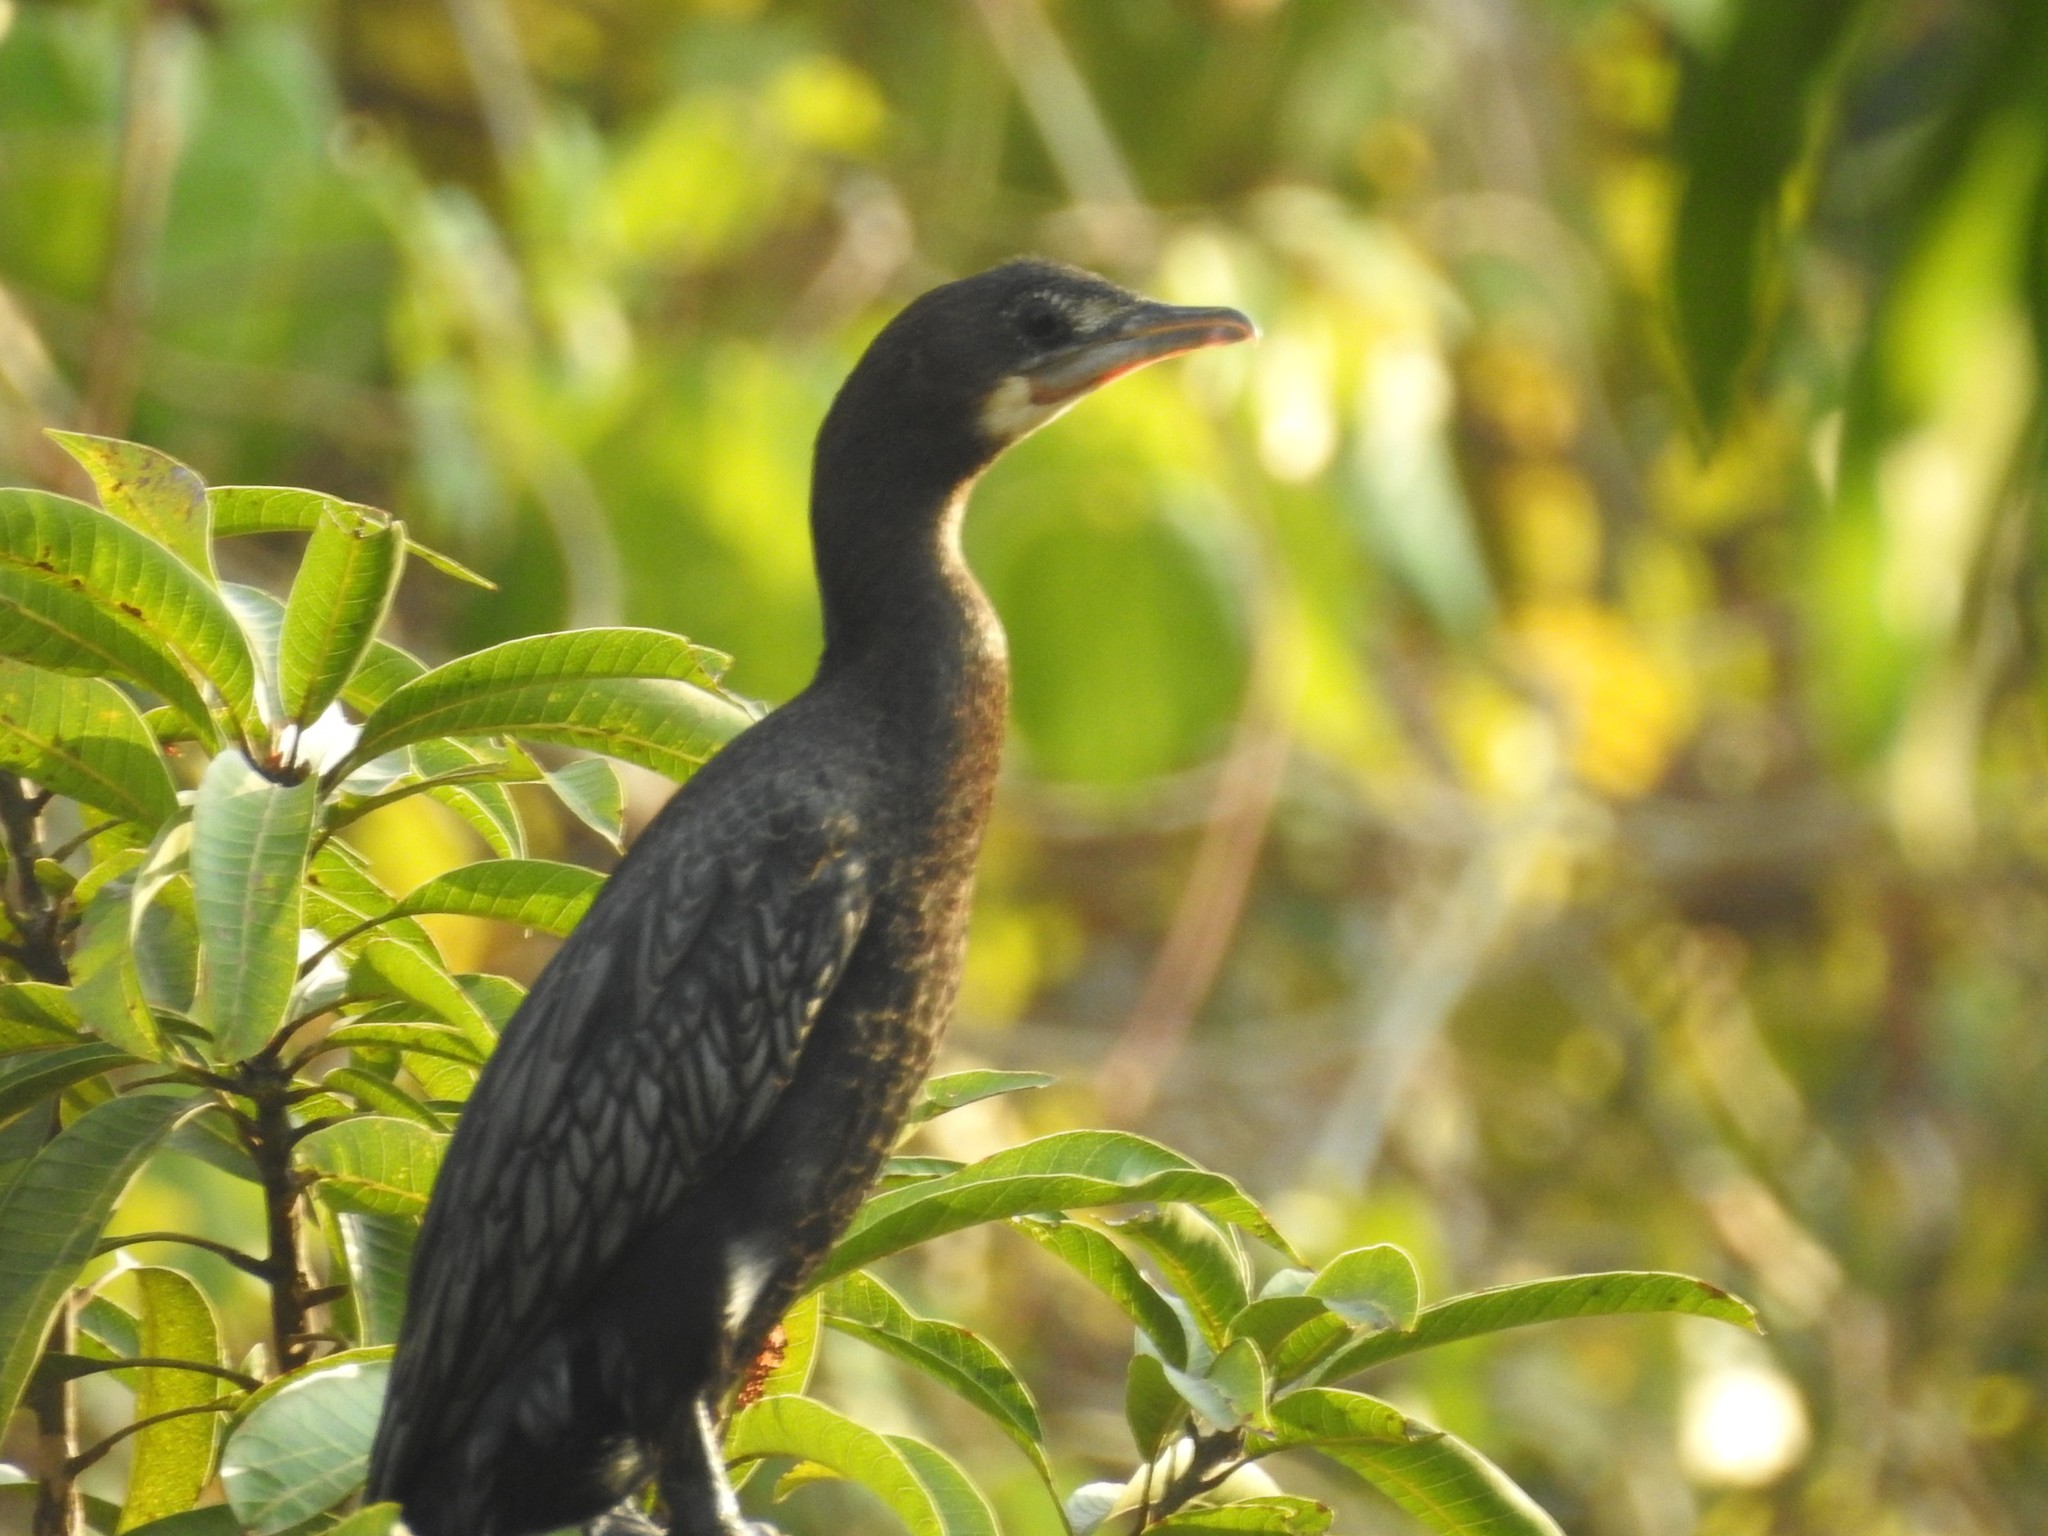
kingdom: Animalia
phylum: Chordata
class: Aves
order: Suliformes
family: Phalacrocoracidae
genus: Microcarbo
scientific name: Microcarbo niger
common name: Little cormorant
